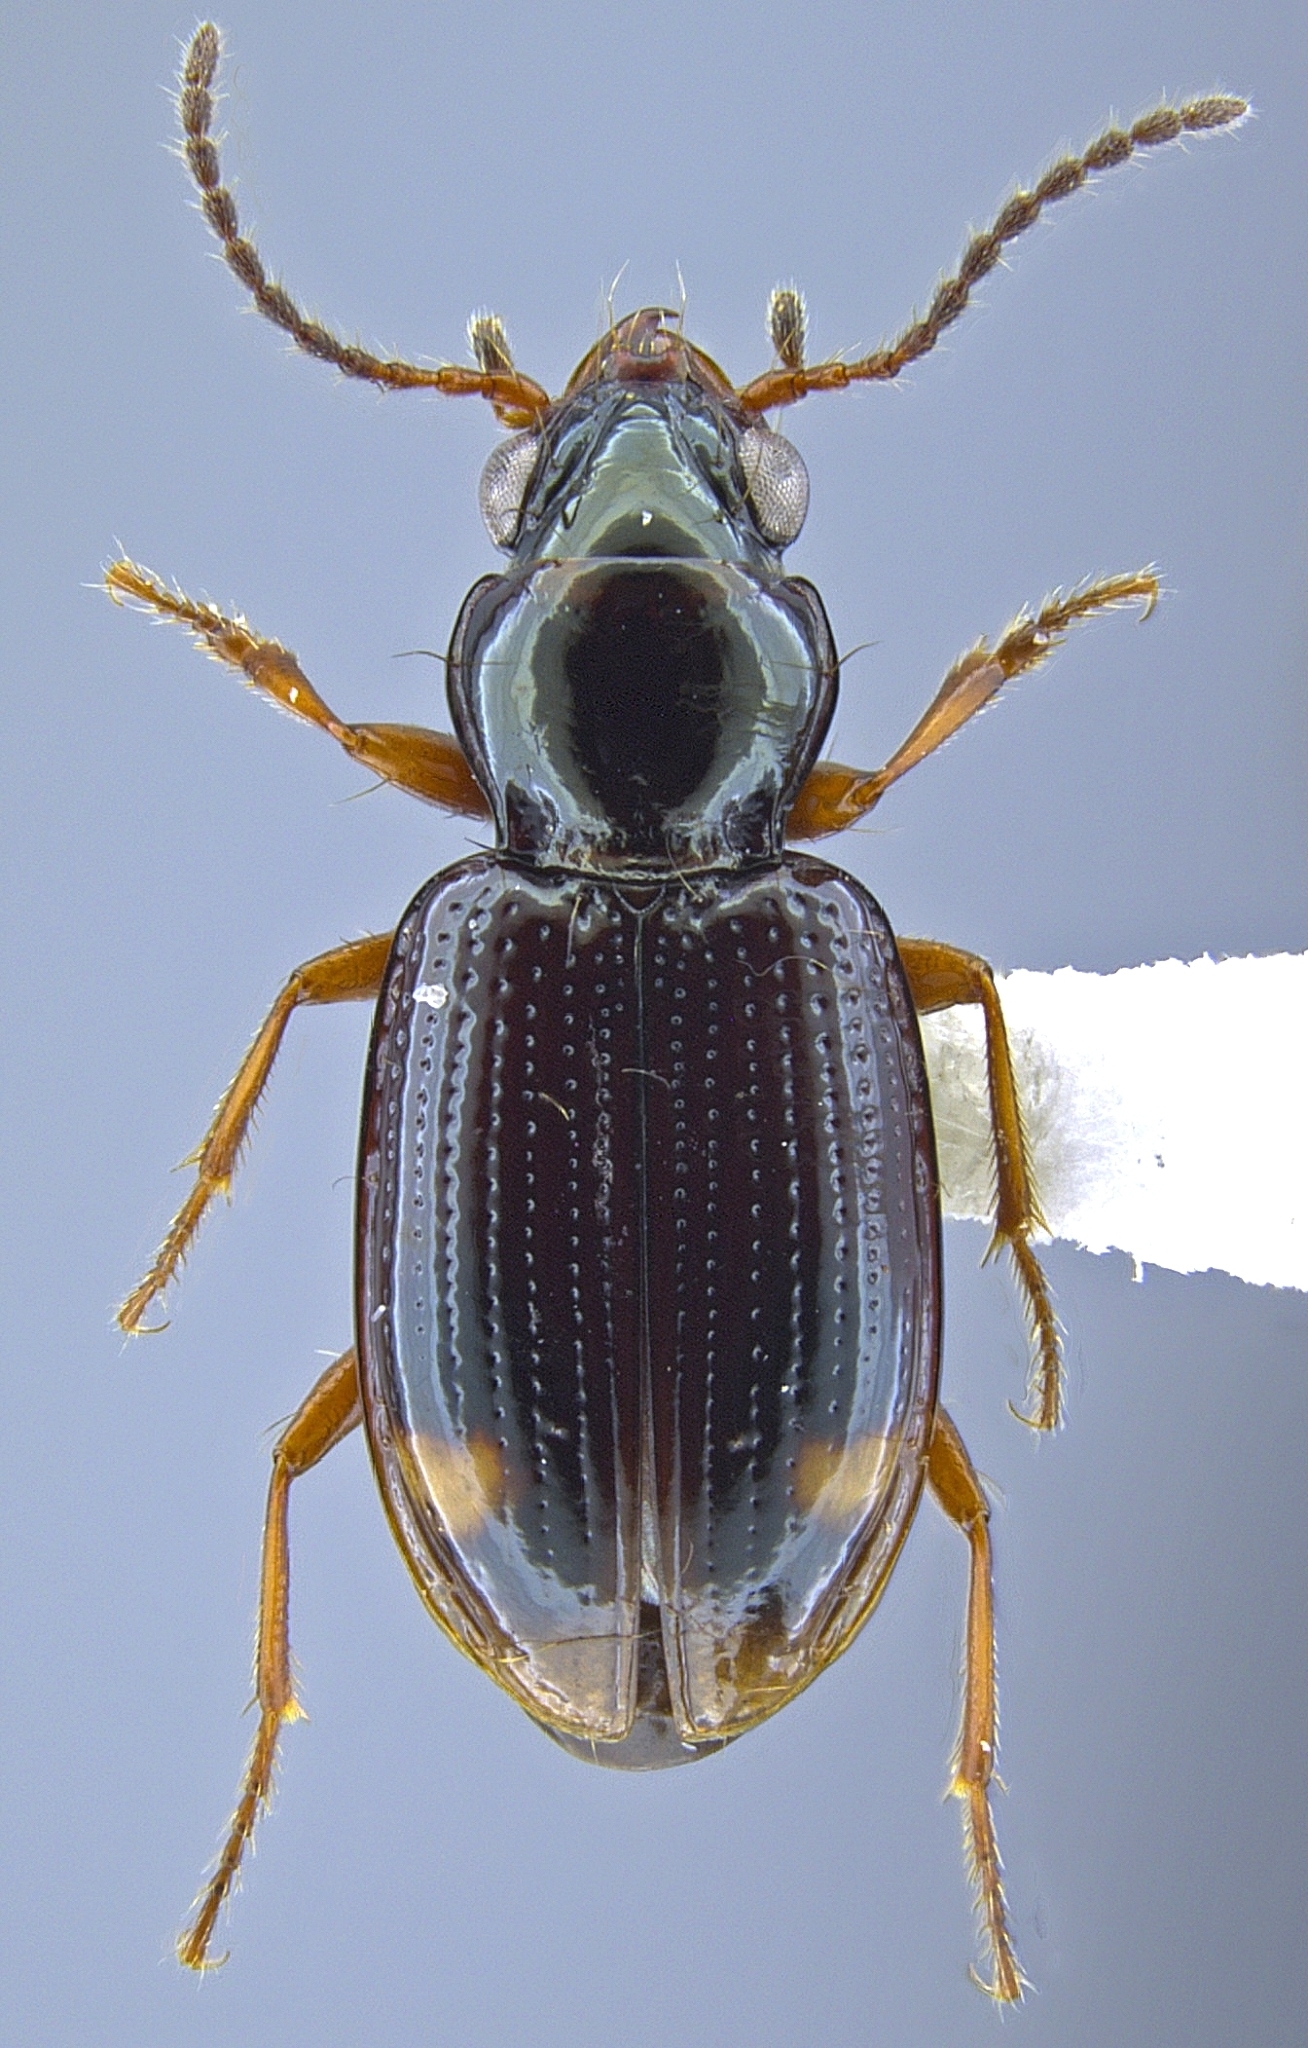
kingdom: Animalia
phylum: Arthropoda
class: Insecta
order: Coleoptera
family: Carabidae
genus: Bembidion
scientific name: Bembidion clemens
